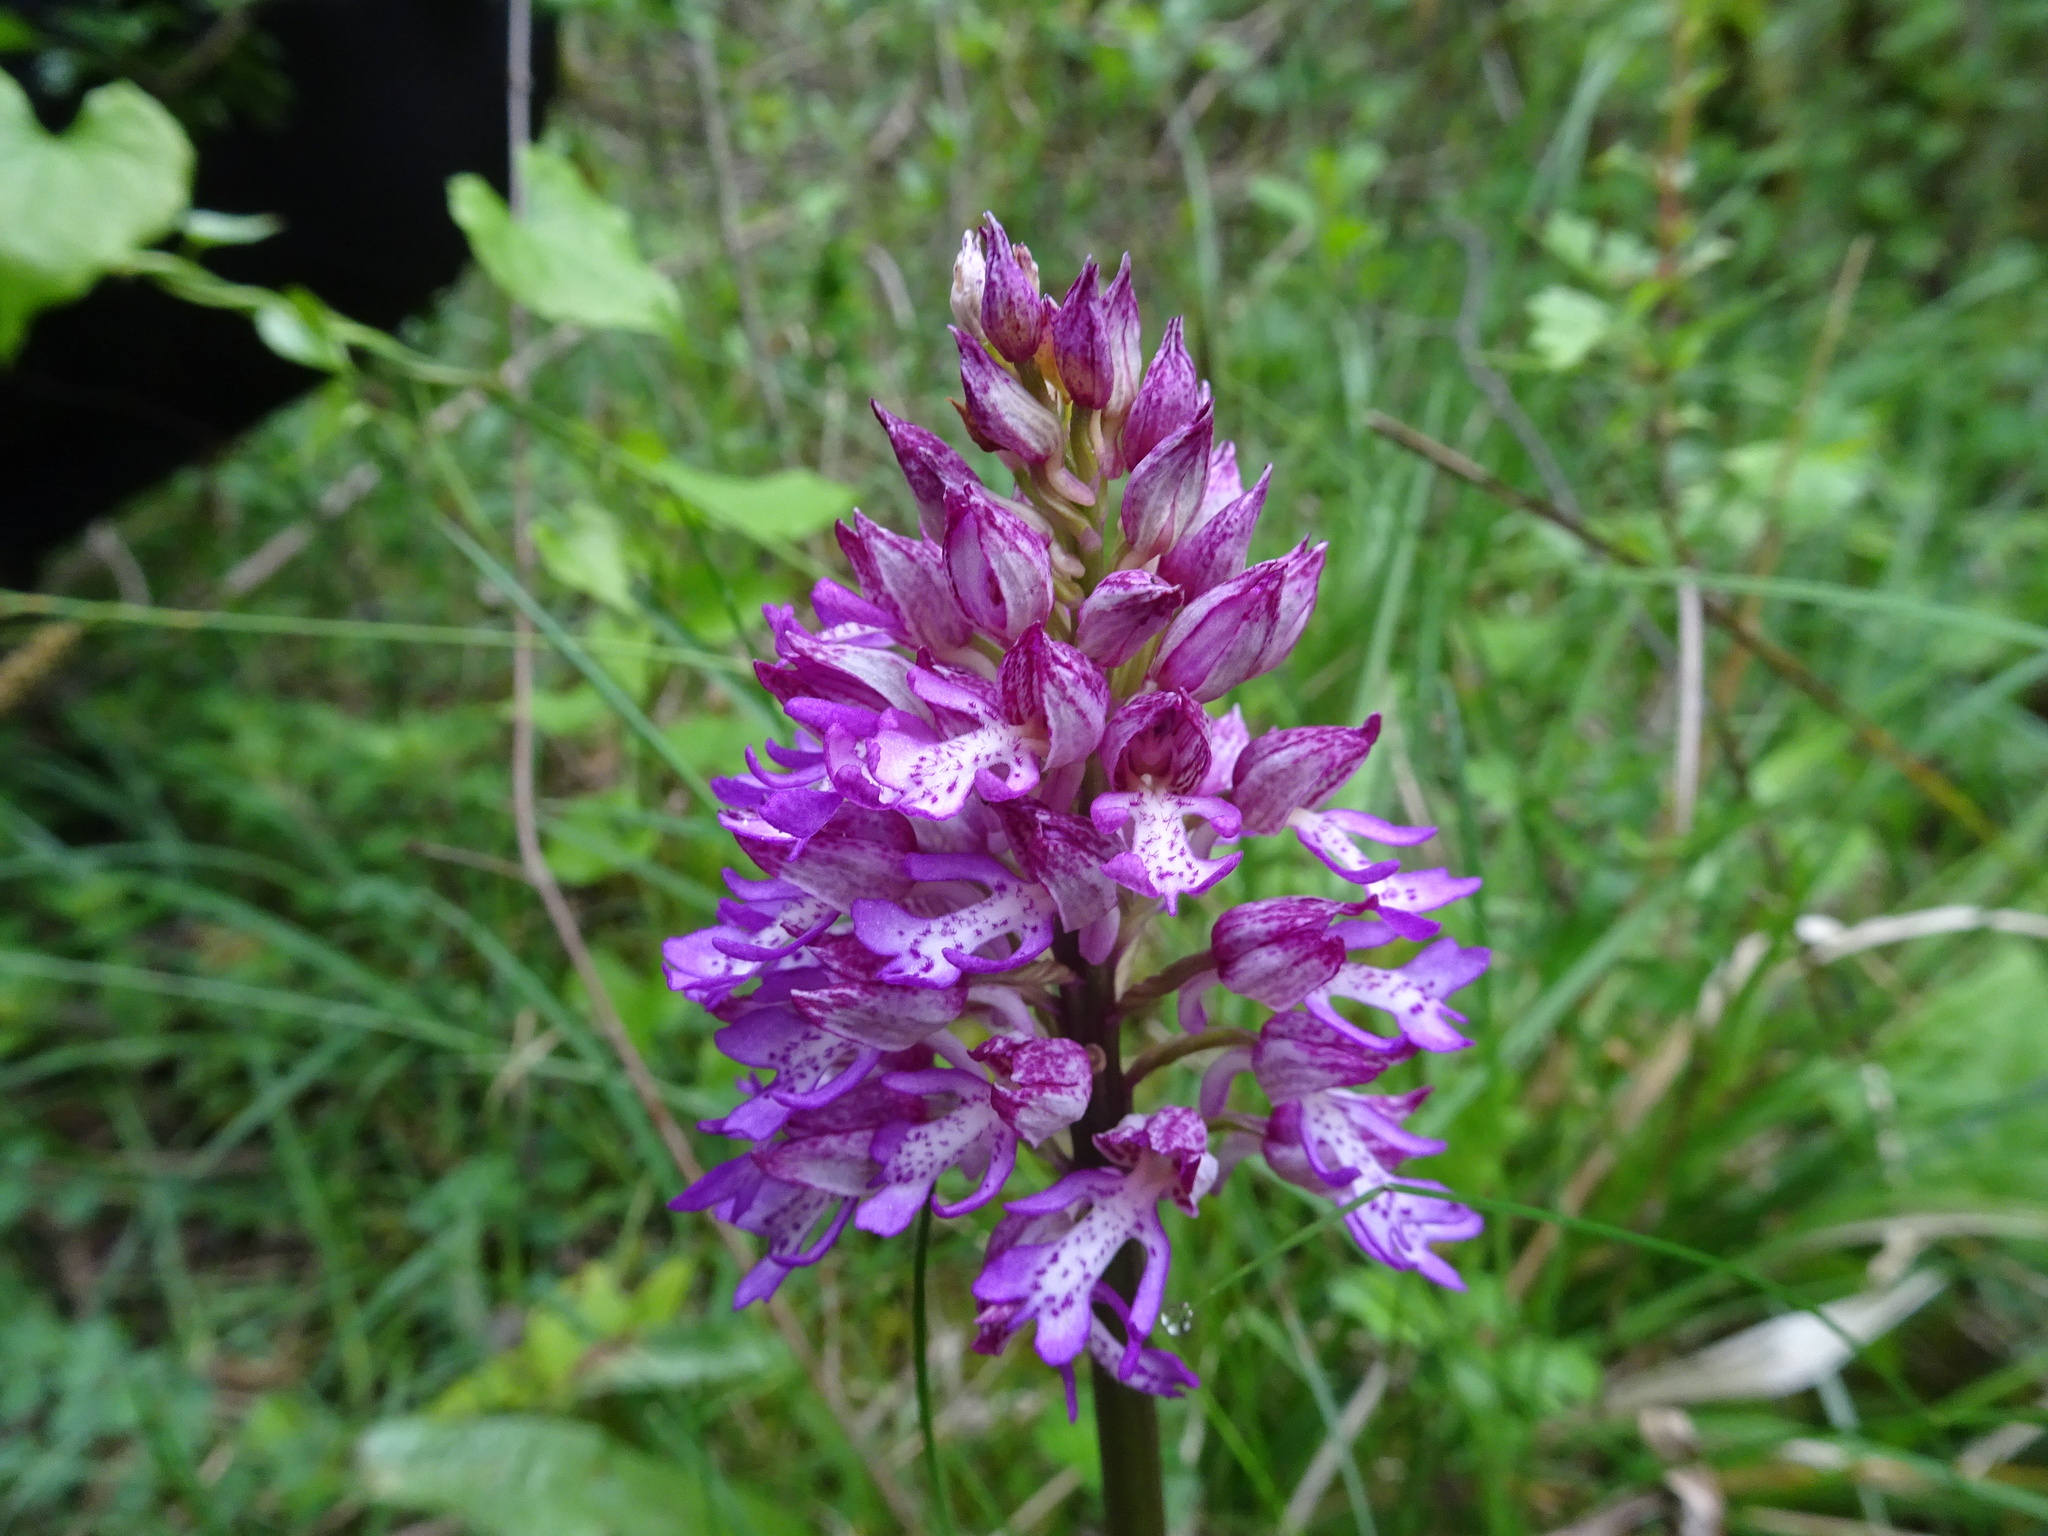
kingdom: Plantae
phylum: Tracheophyta
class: Liliopsida
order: Asparagales
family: Orchidaceae
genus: Orchis
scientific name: Orchis hybrida
